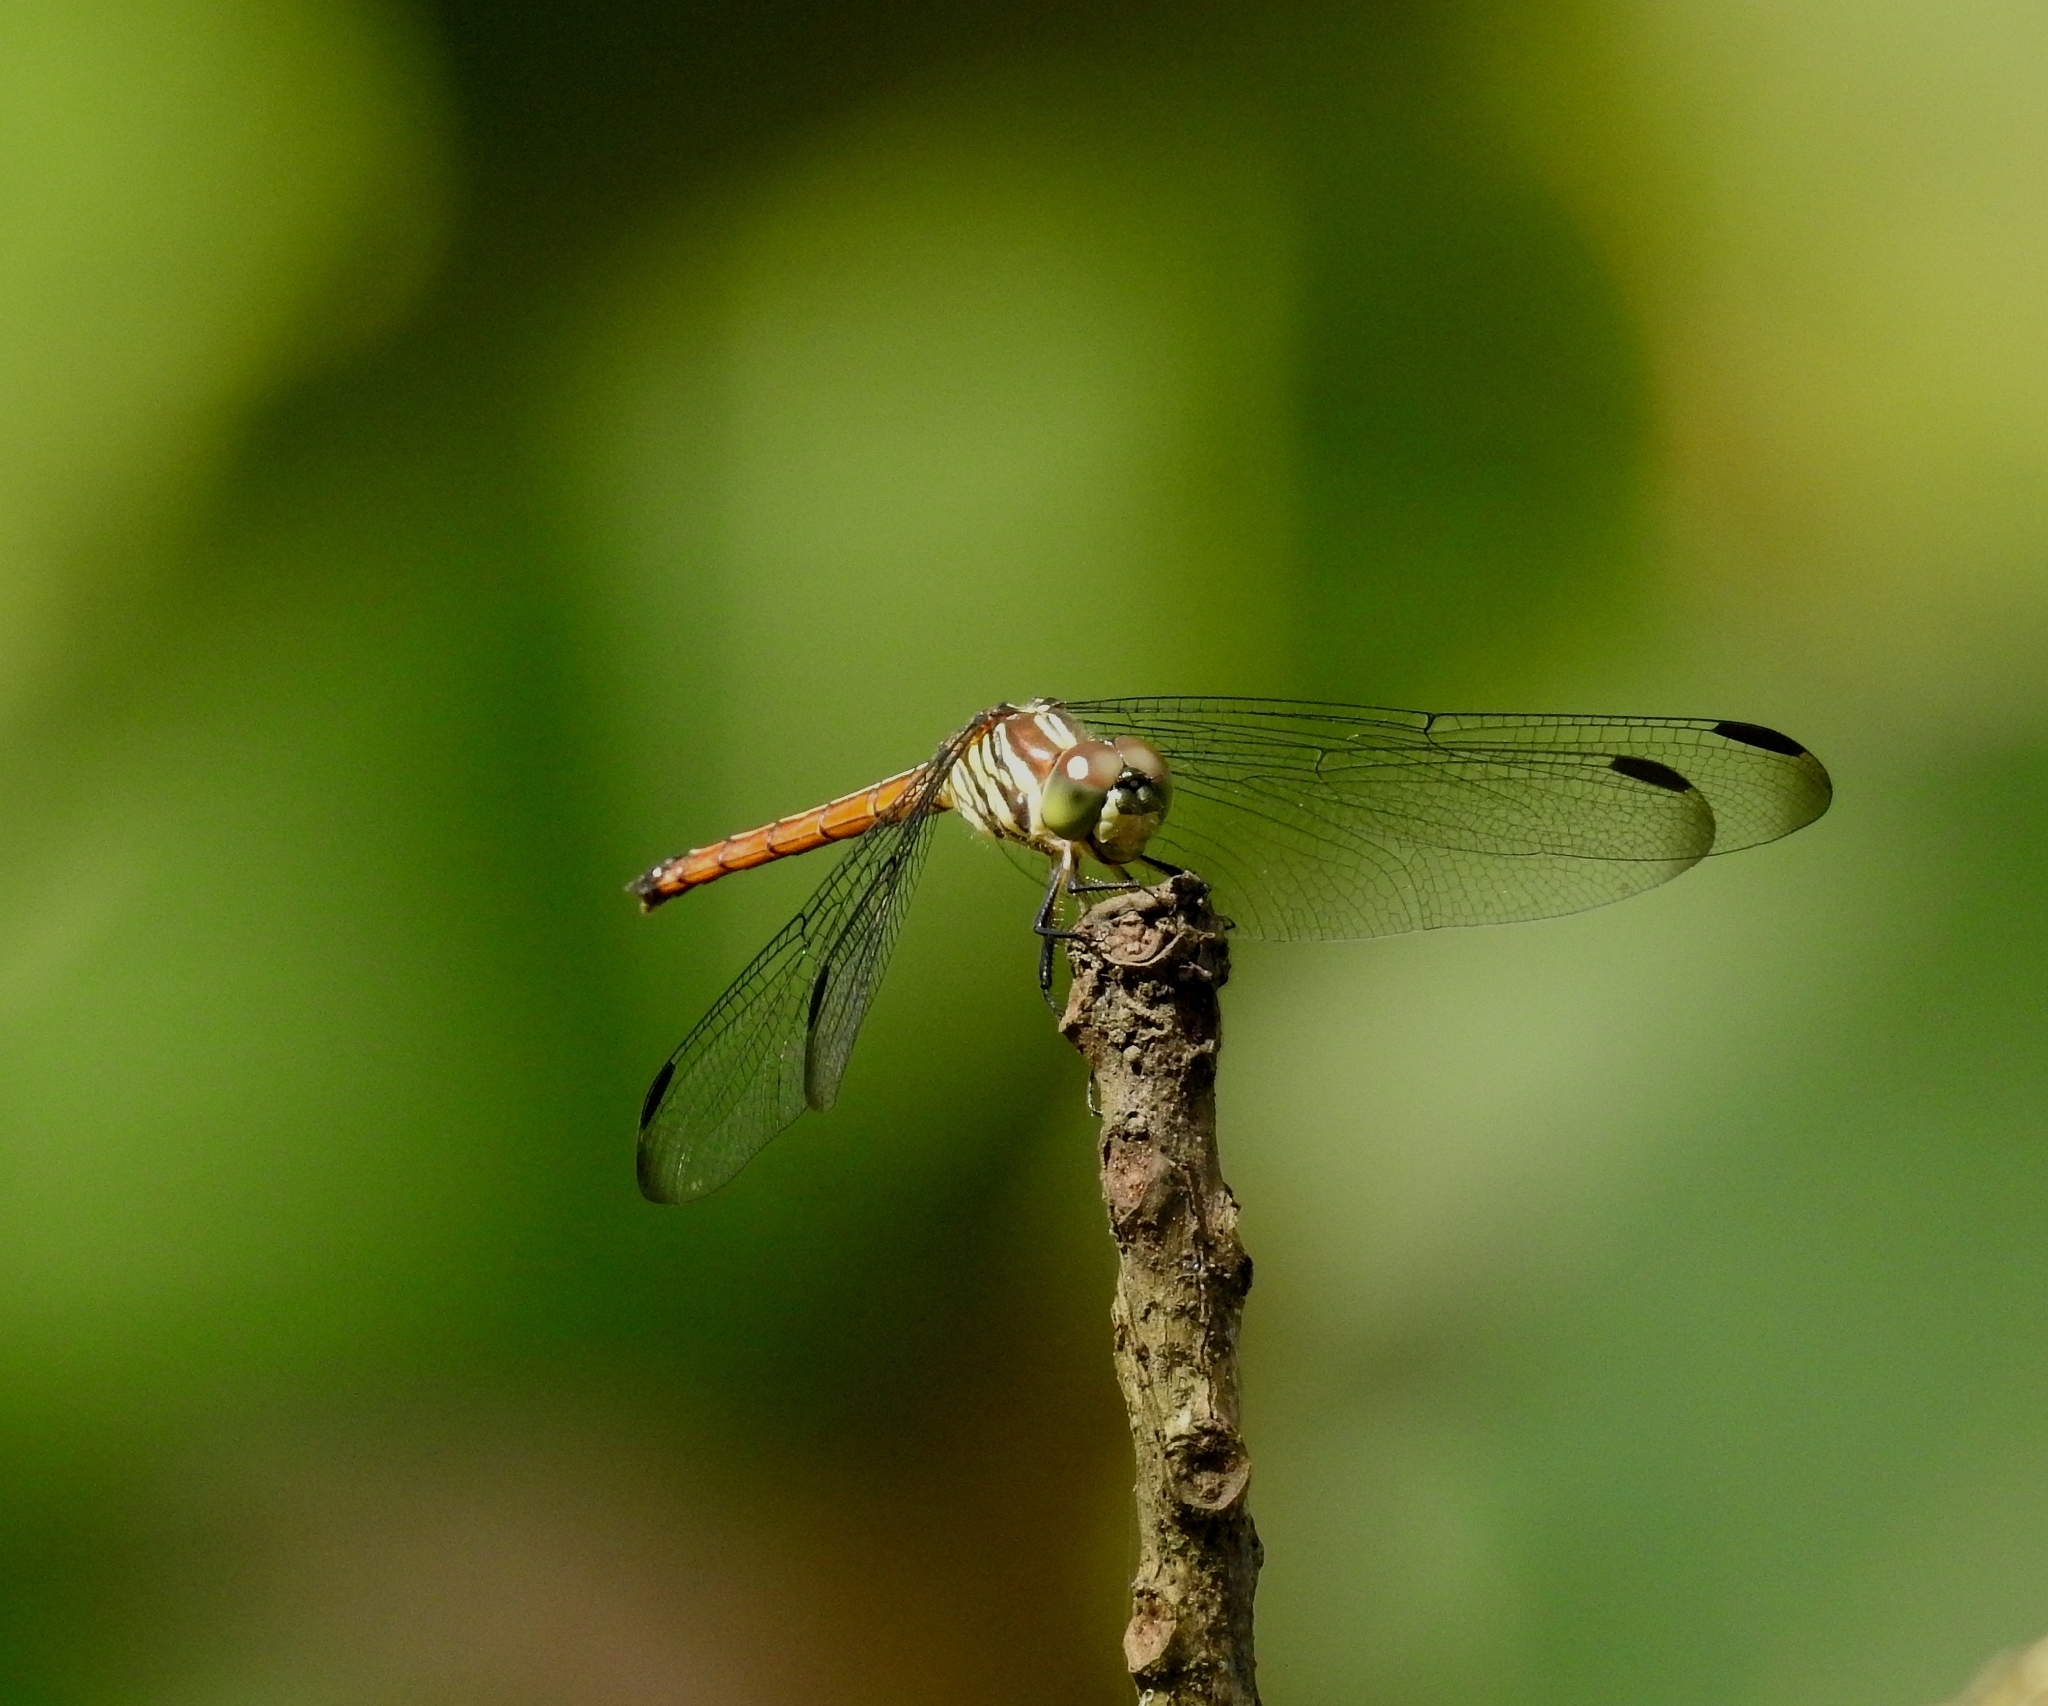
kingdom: Animalia
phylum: Arthropoda
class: Insecta
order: Odonata
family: Libellulidae
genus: Lathrecista
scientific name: Lathrecista asiatica
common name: Scarlet grenadier
